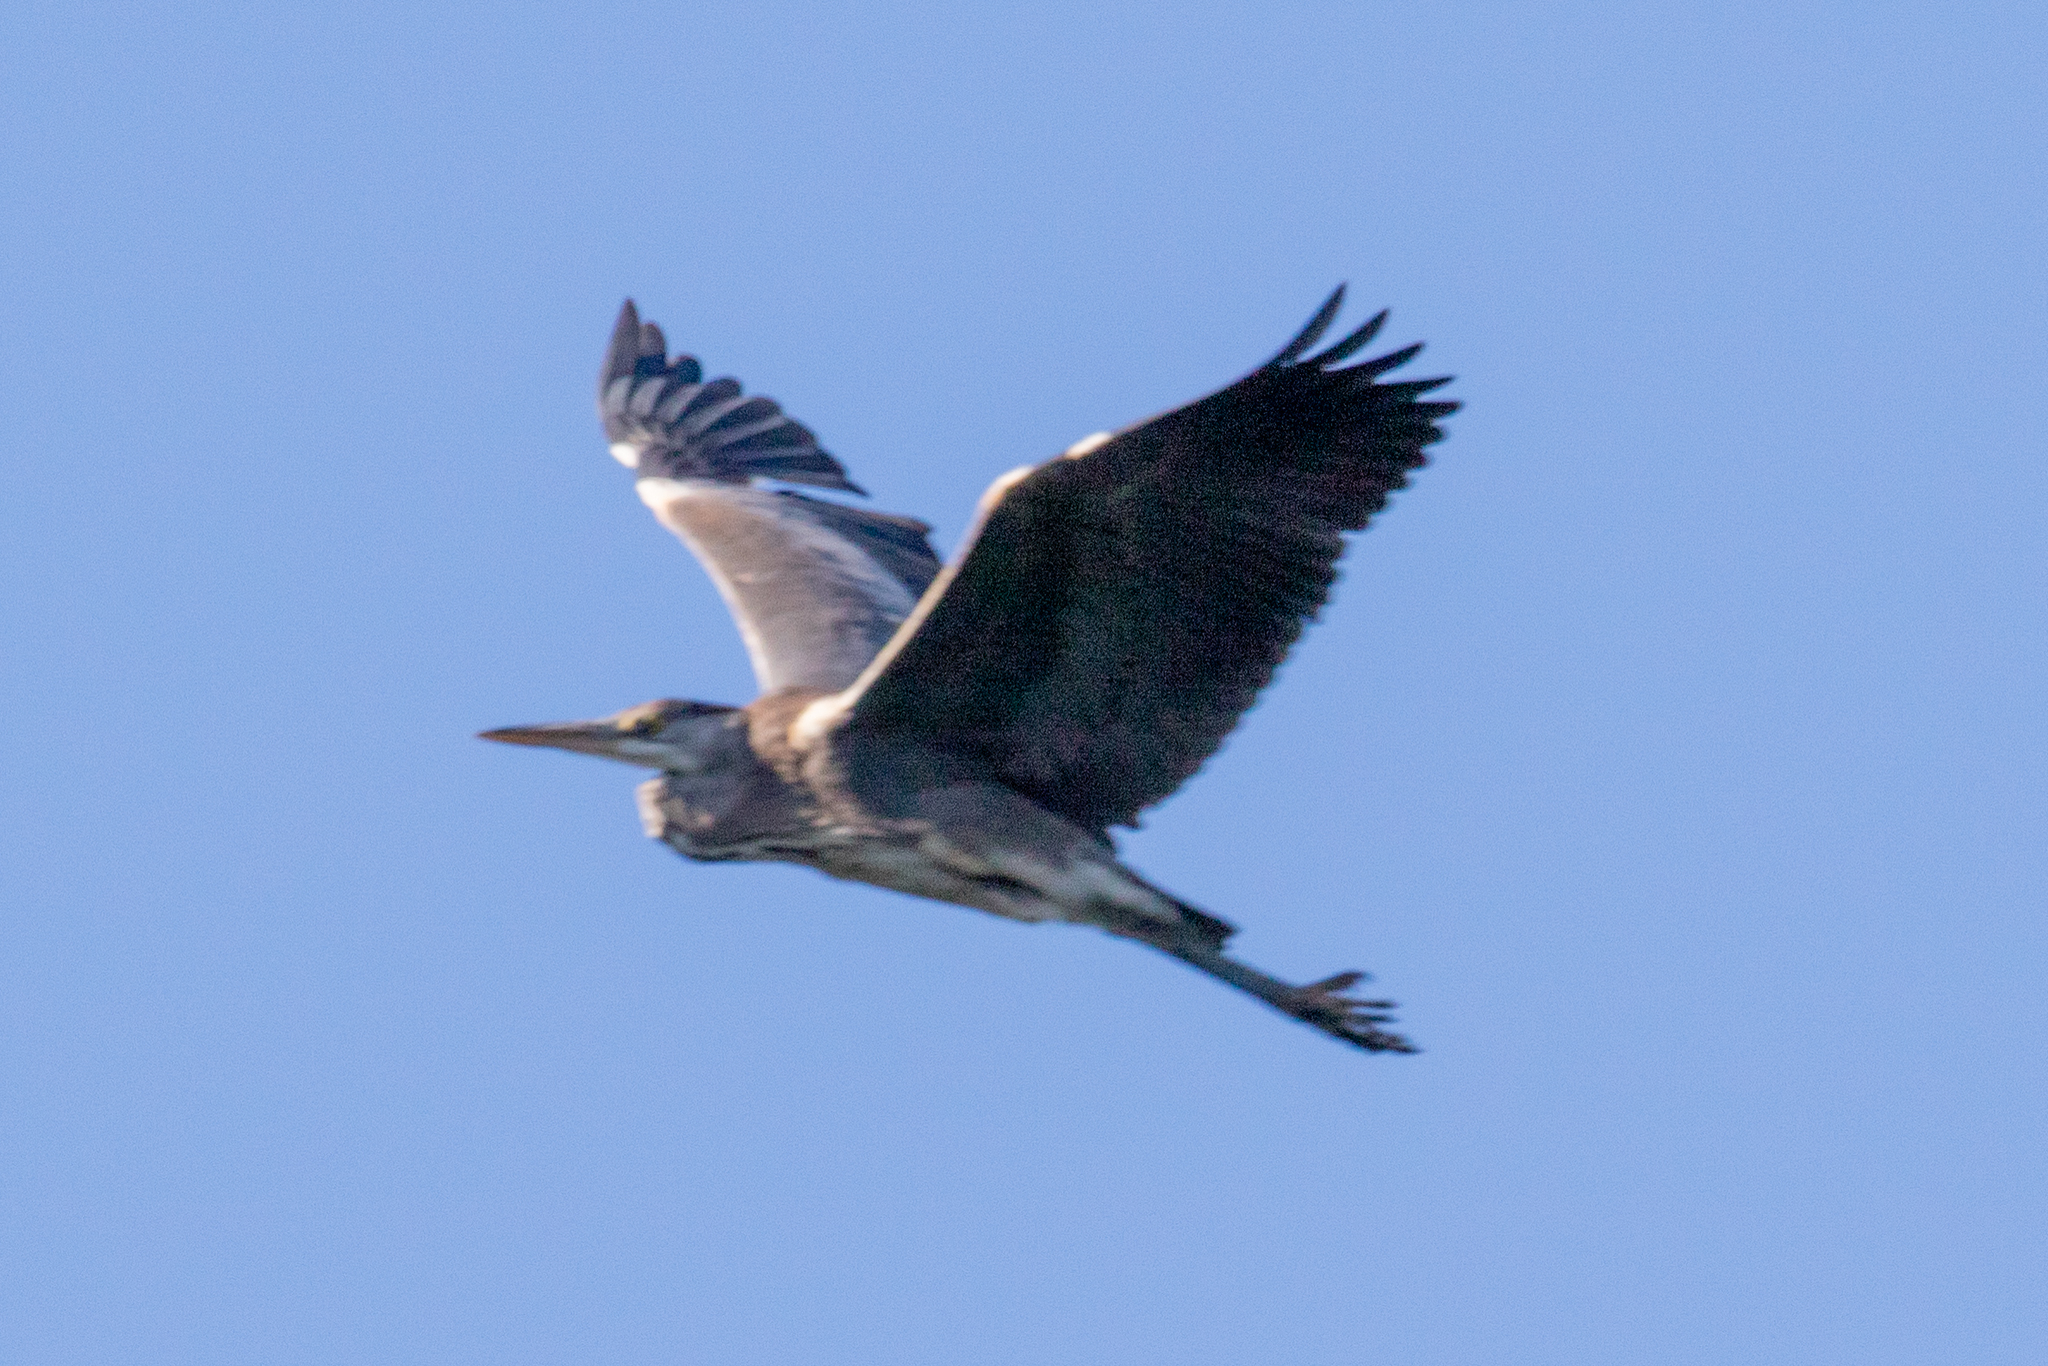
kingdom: Animalia
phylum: Chordata
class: Aves
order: Pelecaniformes
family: Ardeidae
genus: Ardea
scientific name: Ardea cinerea
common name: Grey heron
